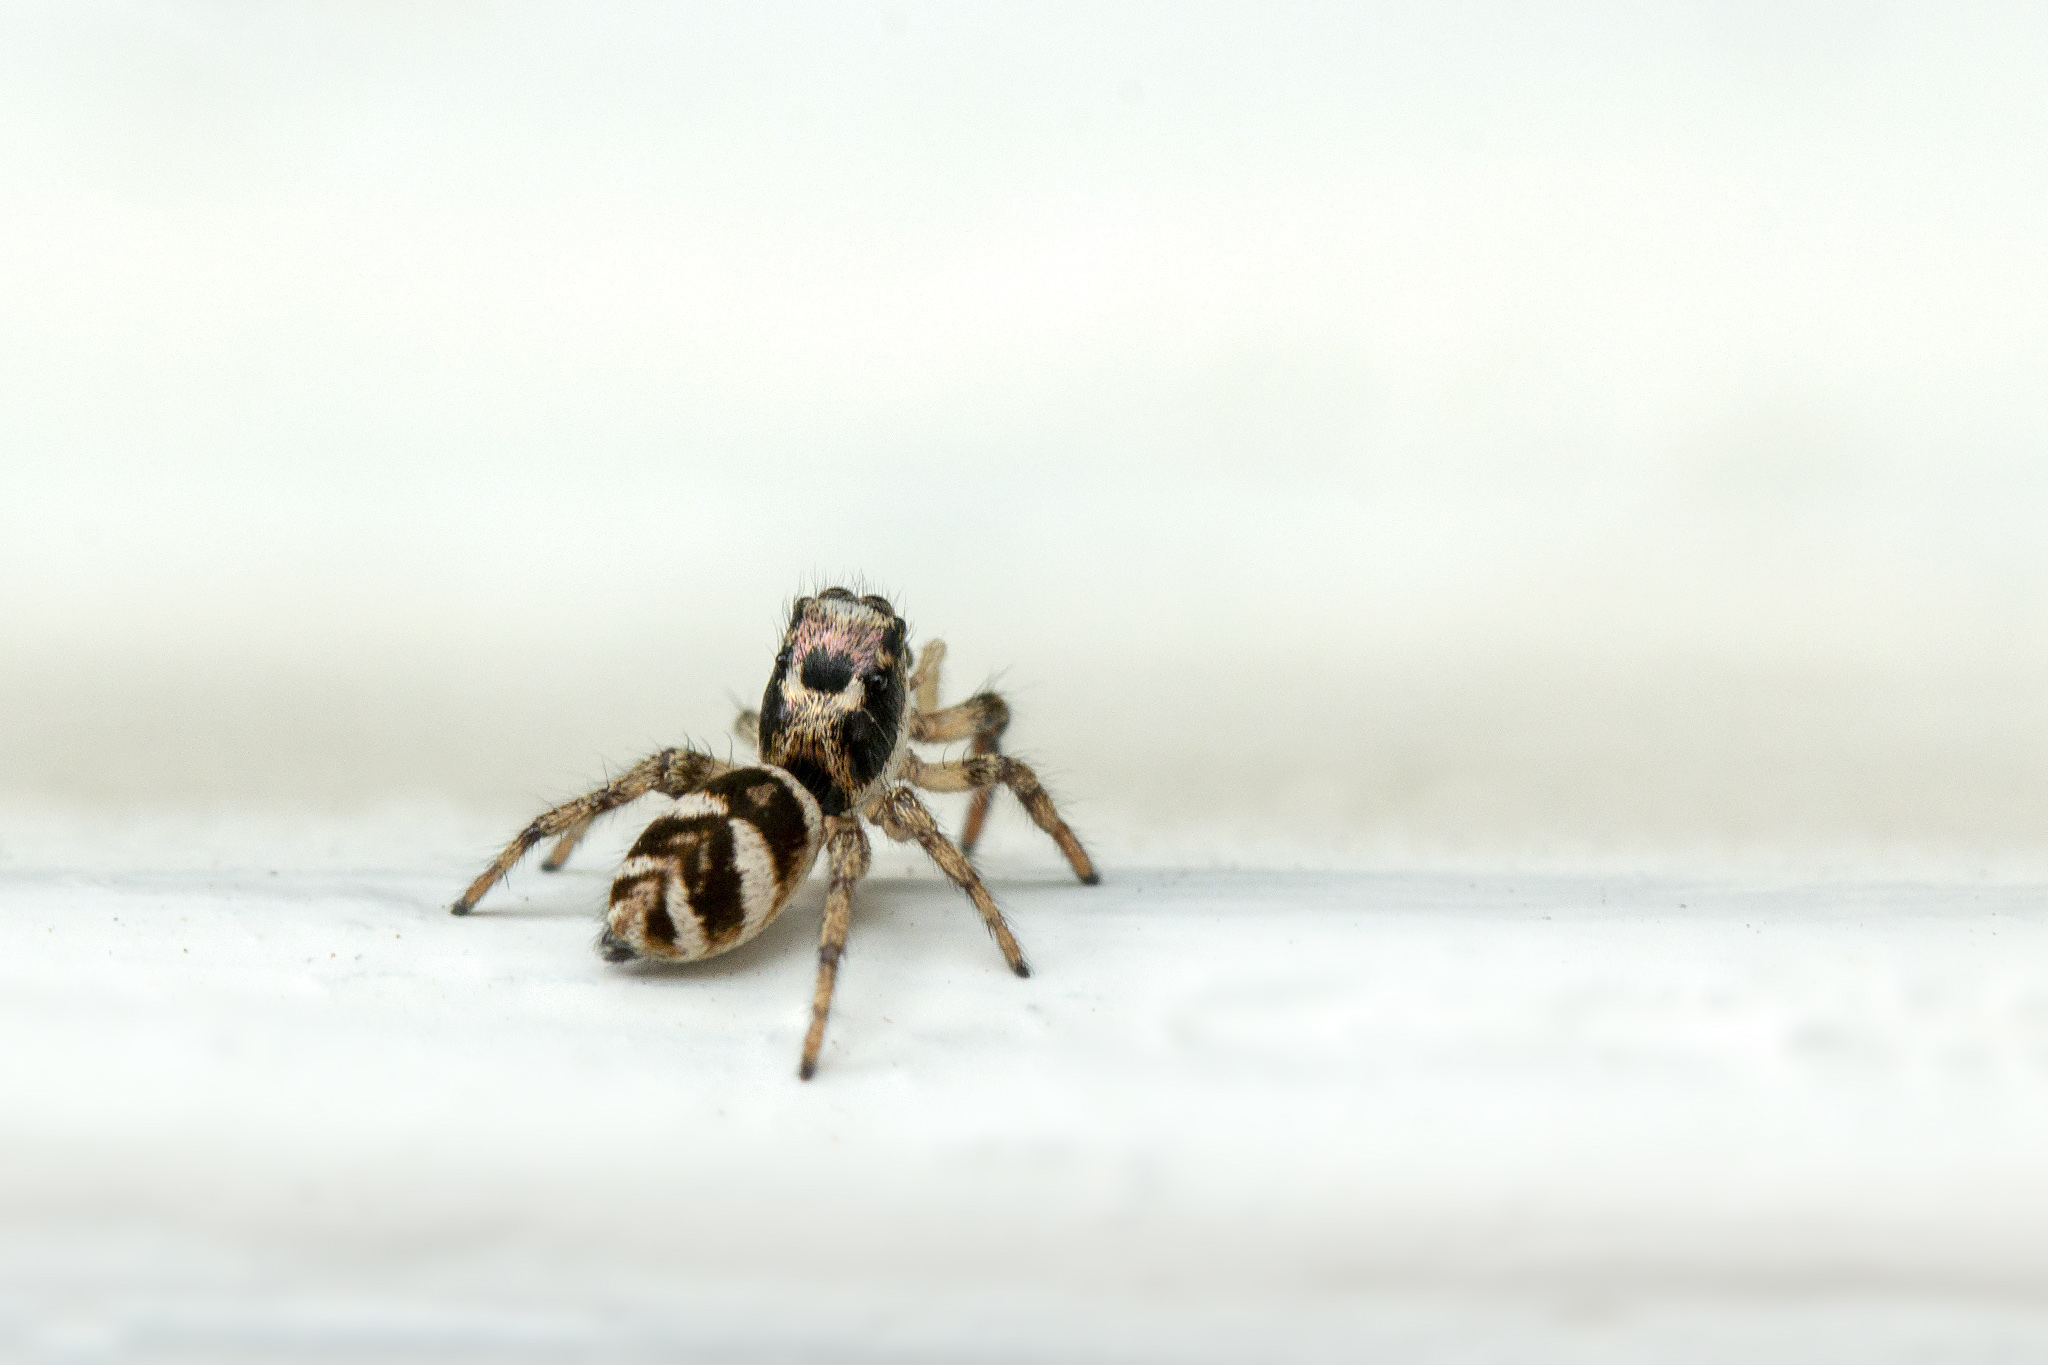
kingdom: Animalia
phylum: Arthropoda
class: Arachnida
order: Araneae
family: Salticidae
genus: Salticus
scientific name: Salticus scenicus
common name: Zebra jumper
